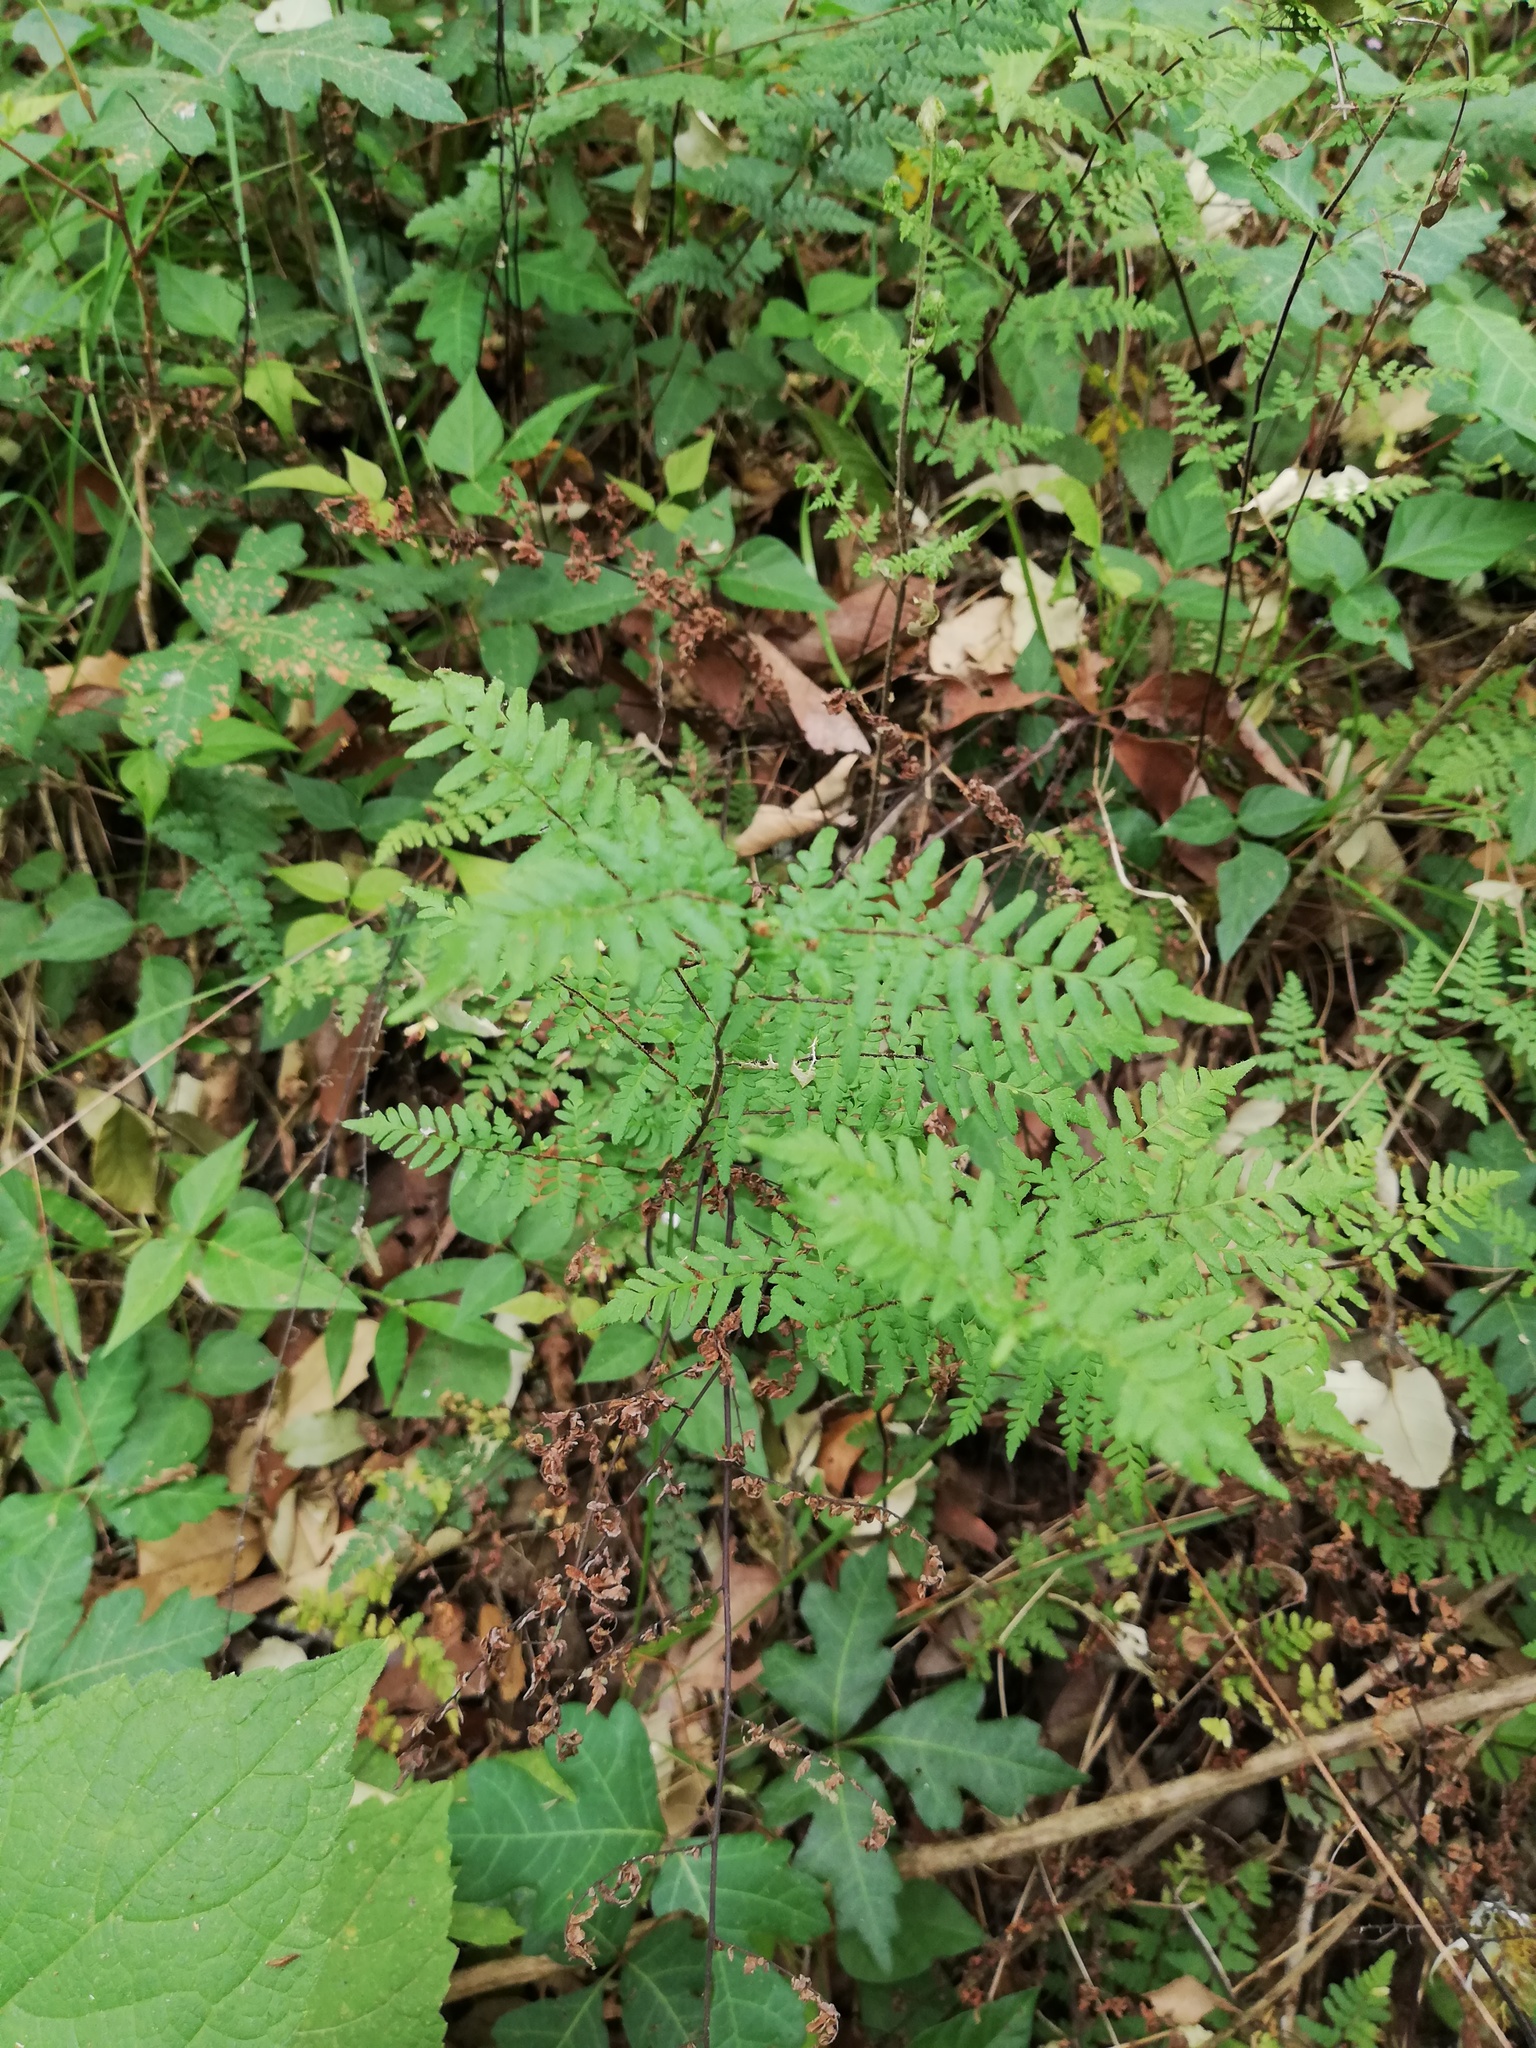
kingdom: Plantae
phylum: Tracheophyta
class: Polypodiopsida
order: Polypodiales
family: Pteridaceae
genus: Myriopteris
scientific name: Myriopteris aemula
